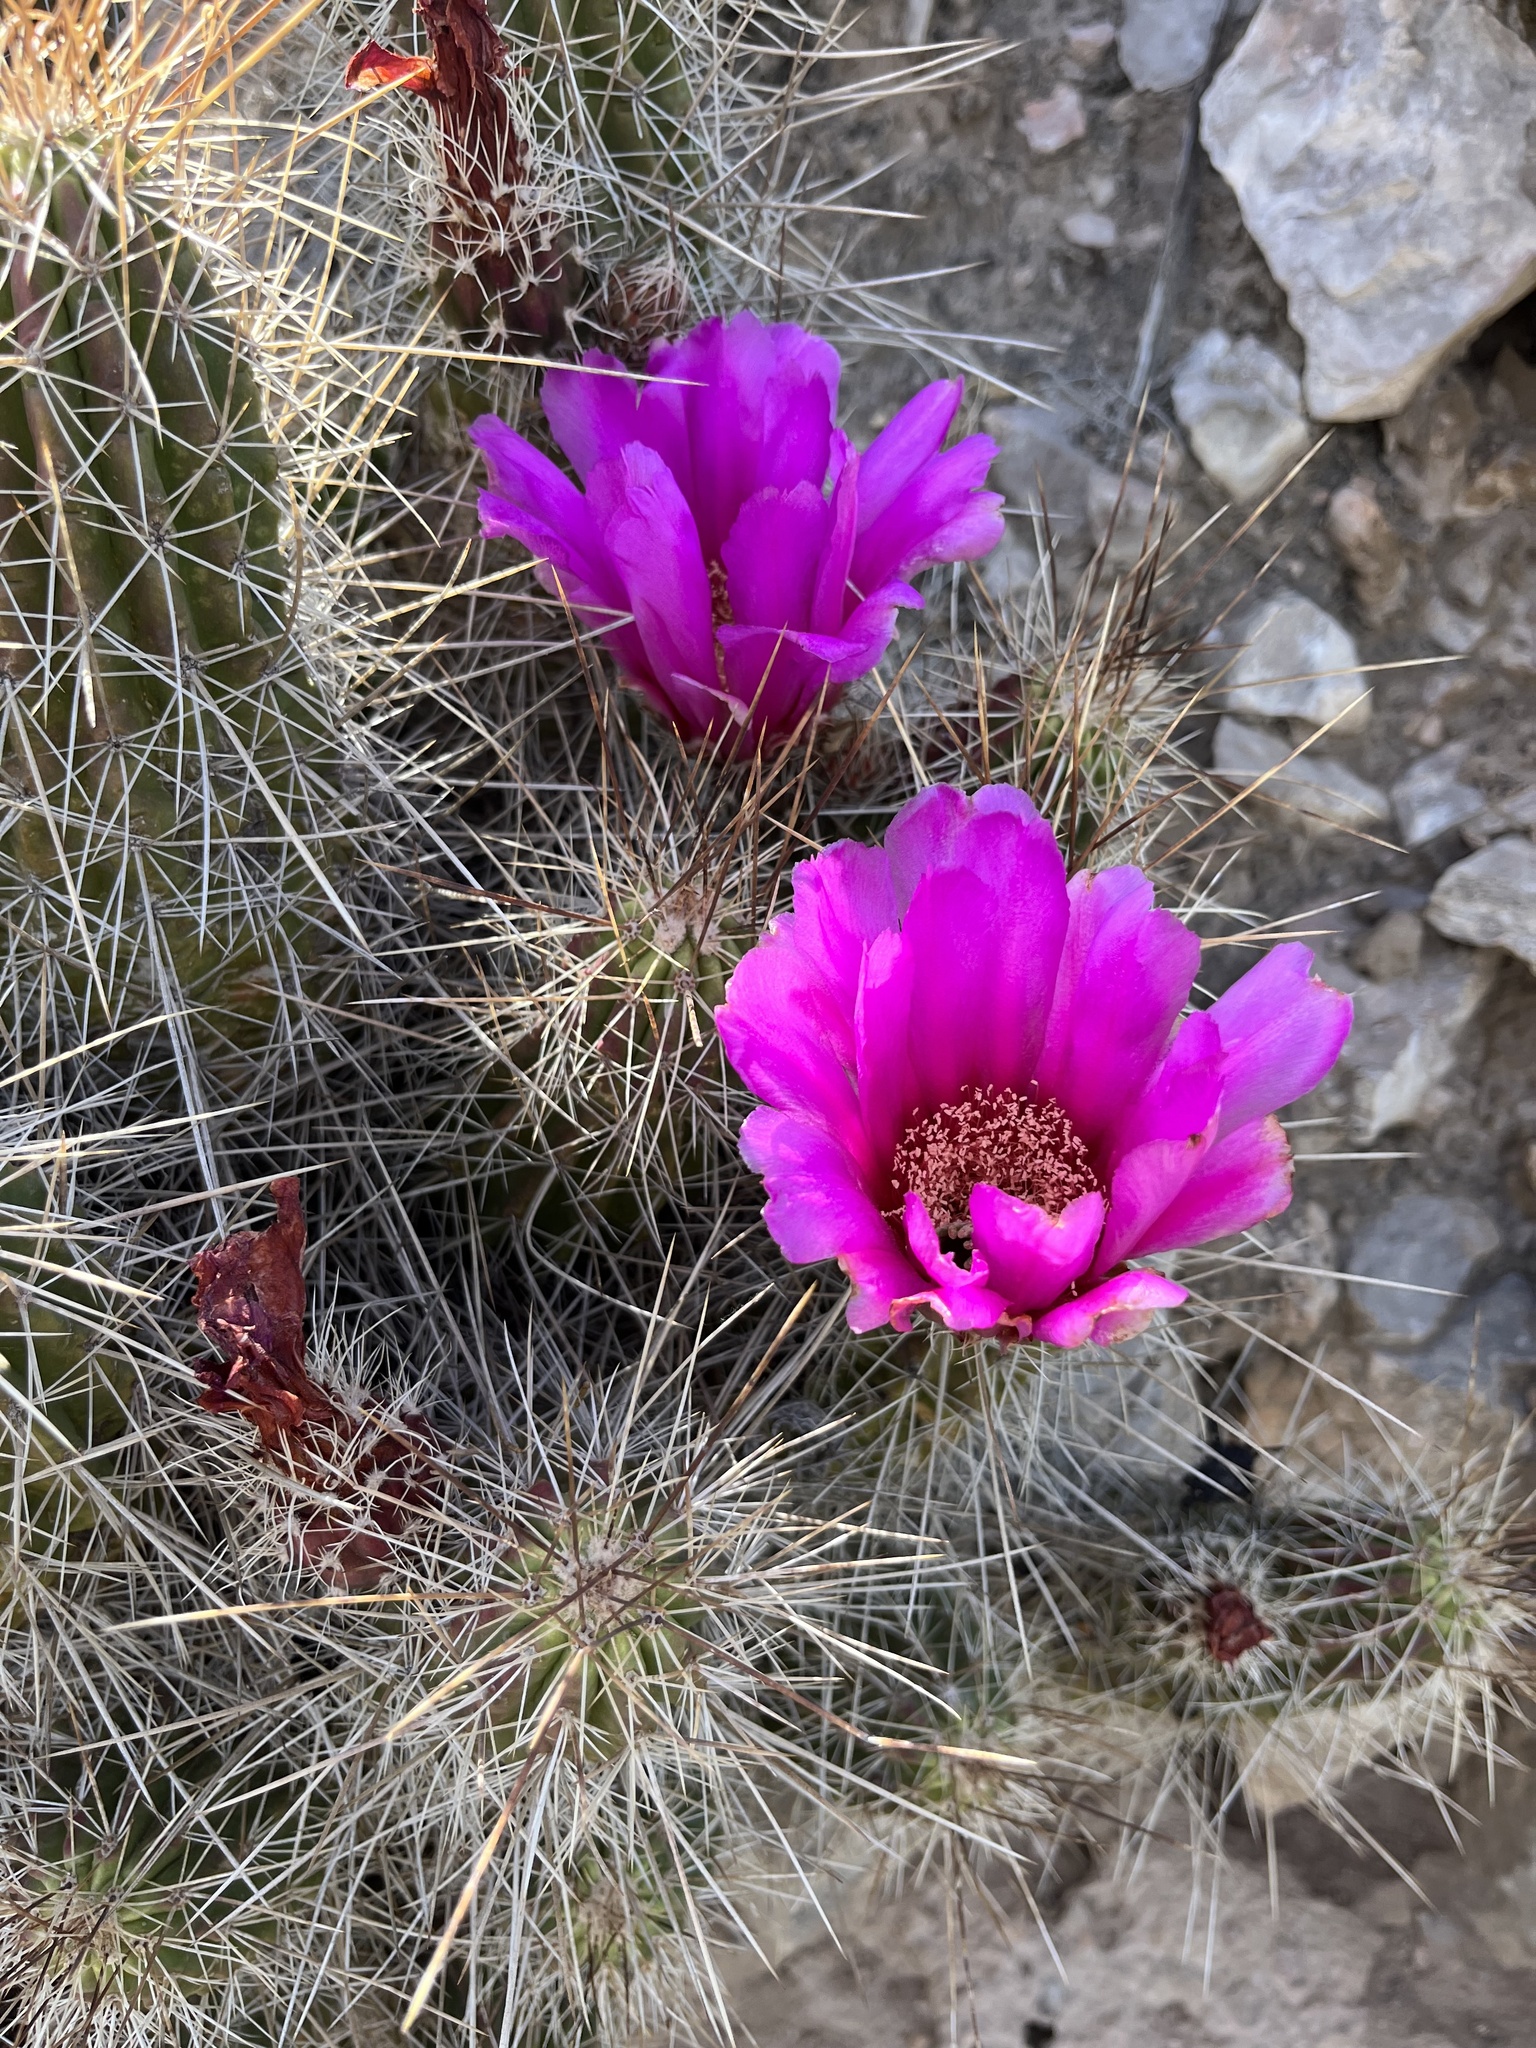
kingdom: Plantae
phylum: Tracheophyta
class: Magnoliopsida
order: Caryophyllales
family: Cactaceae
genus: Echinocereus
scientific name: Echinocereus stramineus
